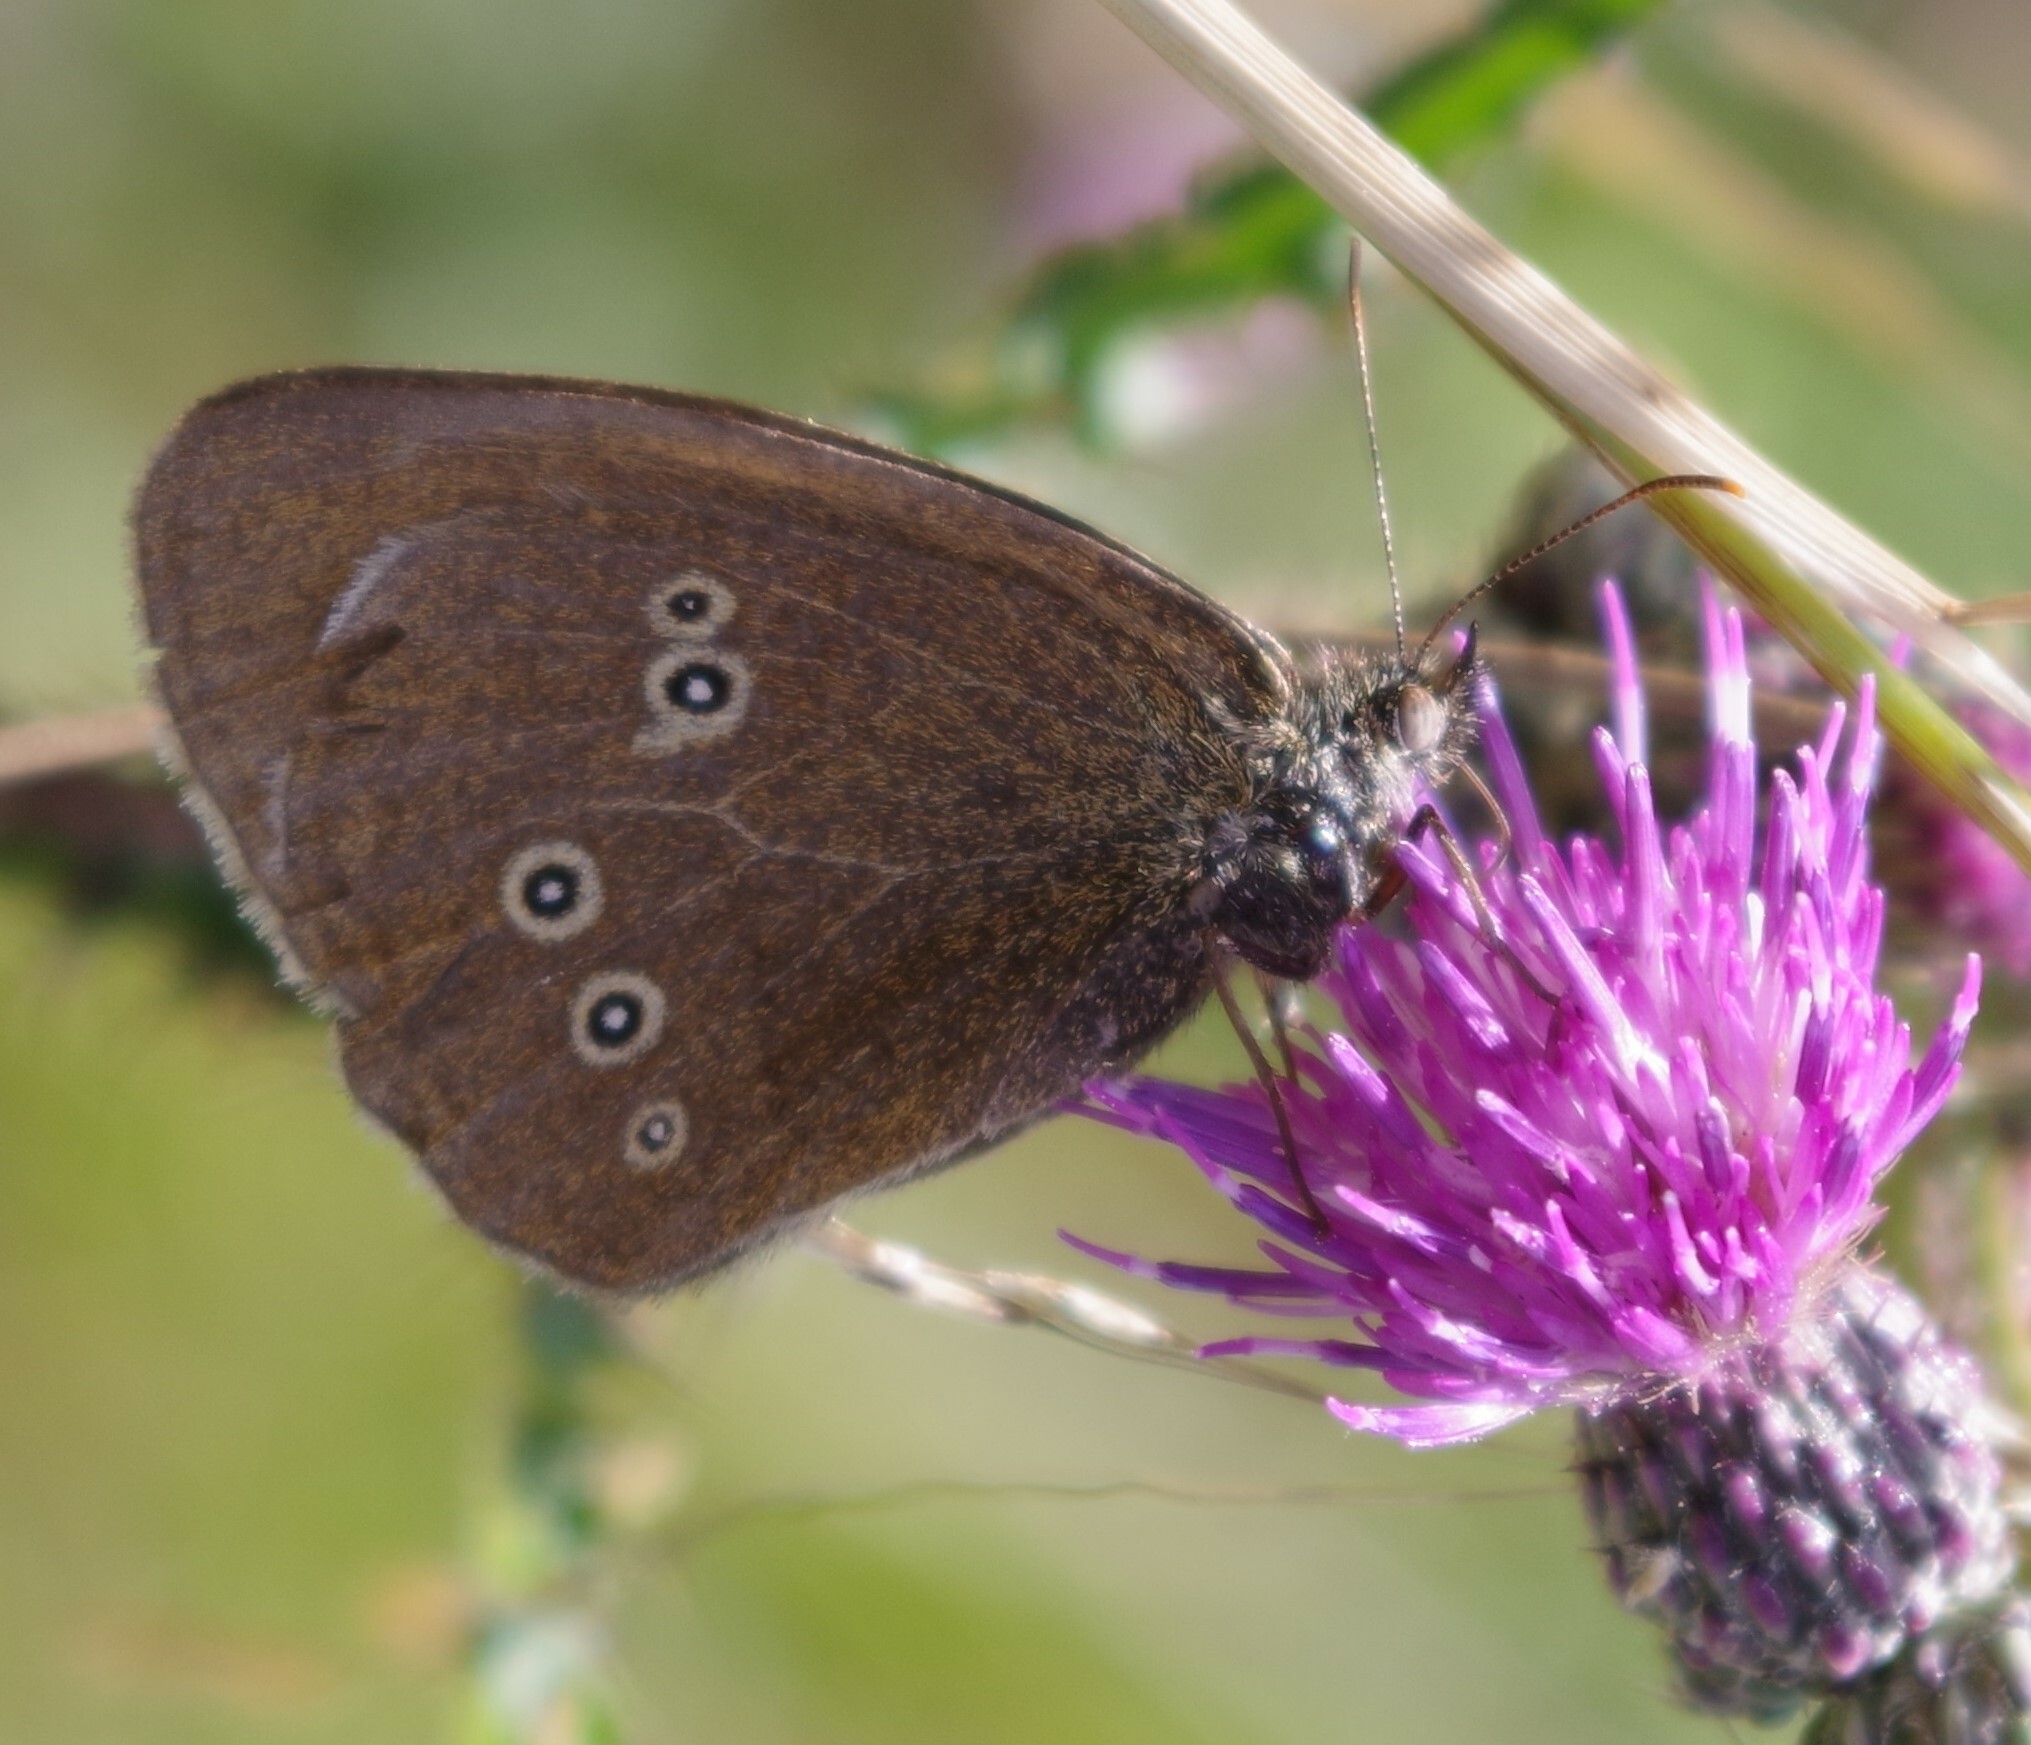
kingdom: Animalia
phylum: Arthropoda
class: Insecta
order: Lepidoptera
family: Nymphalidae
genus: Aphantopus
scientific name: Aphantopus hyperantus
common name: Ringlet
